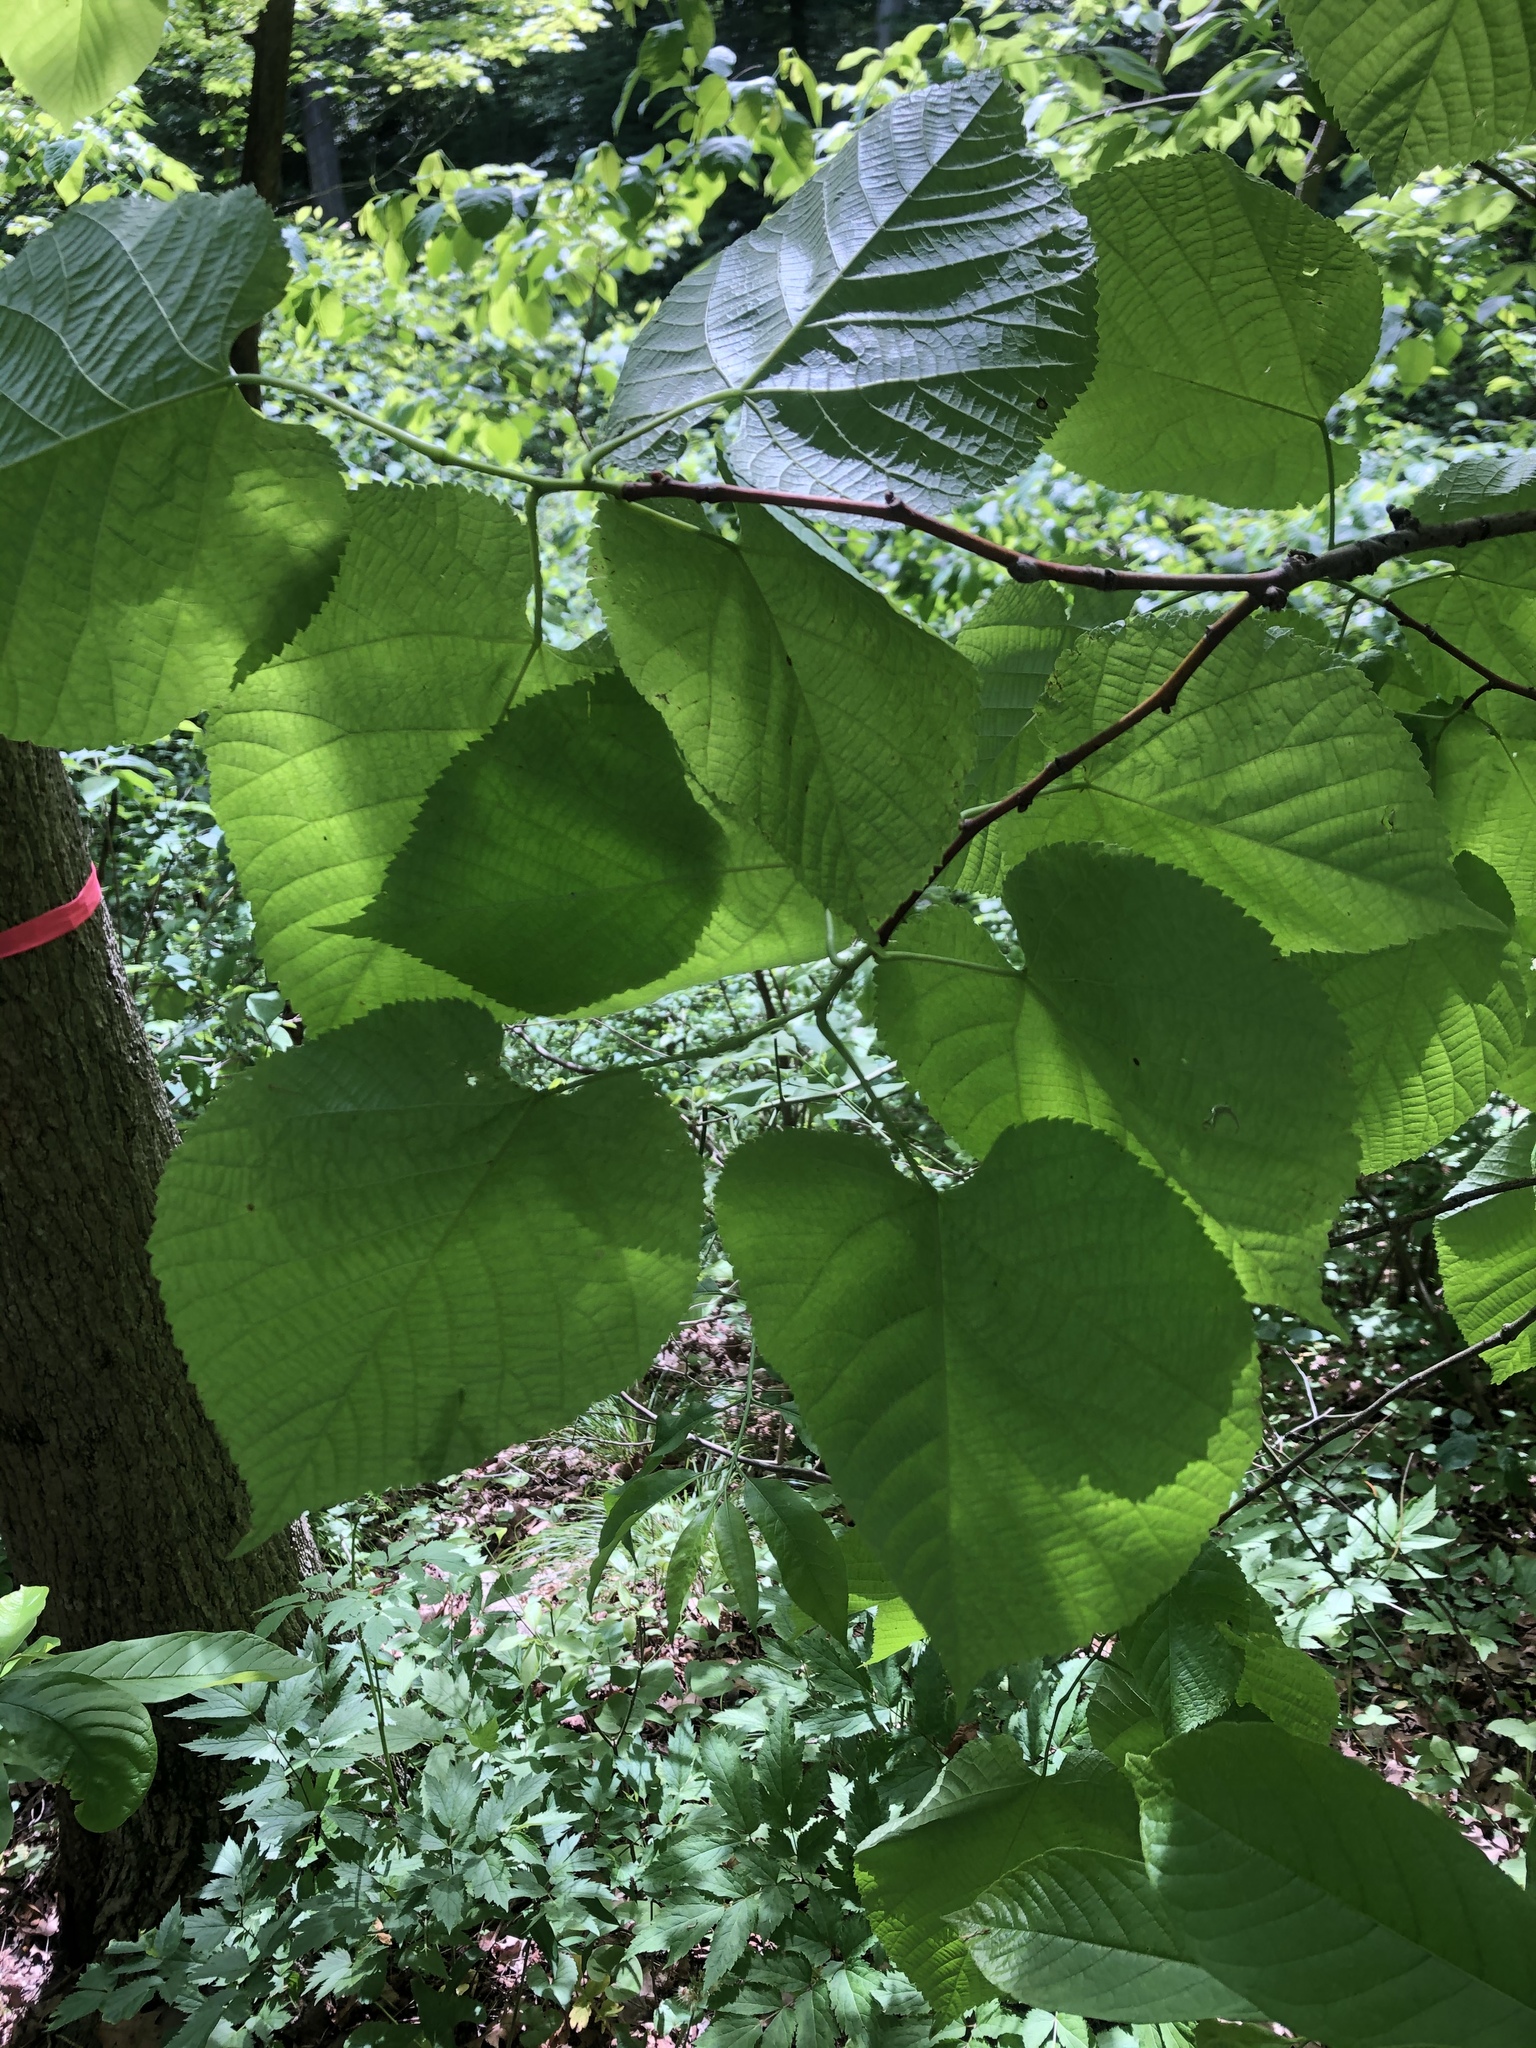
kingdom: Plantae
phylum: Tracheophyta
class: Magnoliopsida
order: Malvales
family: Malvaceae
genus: Tilia
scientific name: Tilia americana
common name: Basswood
